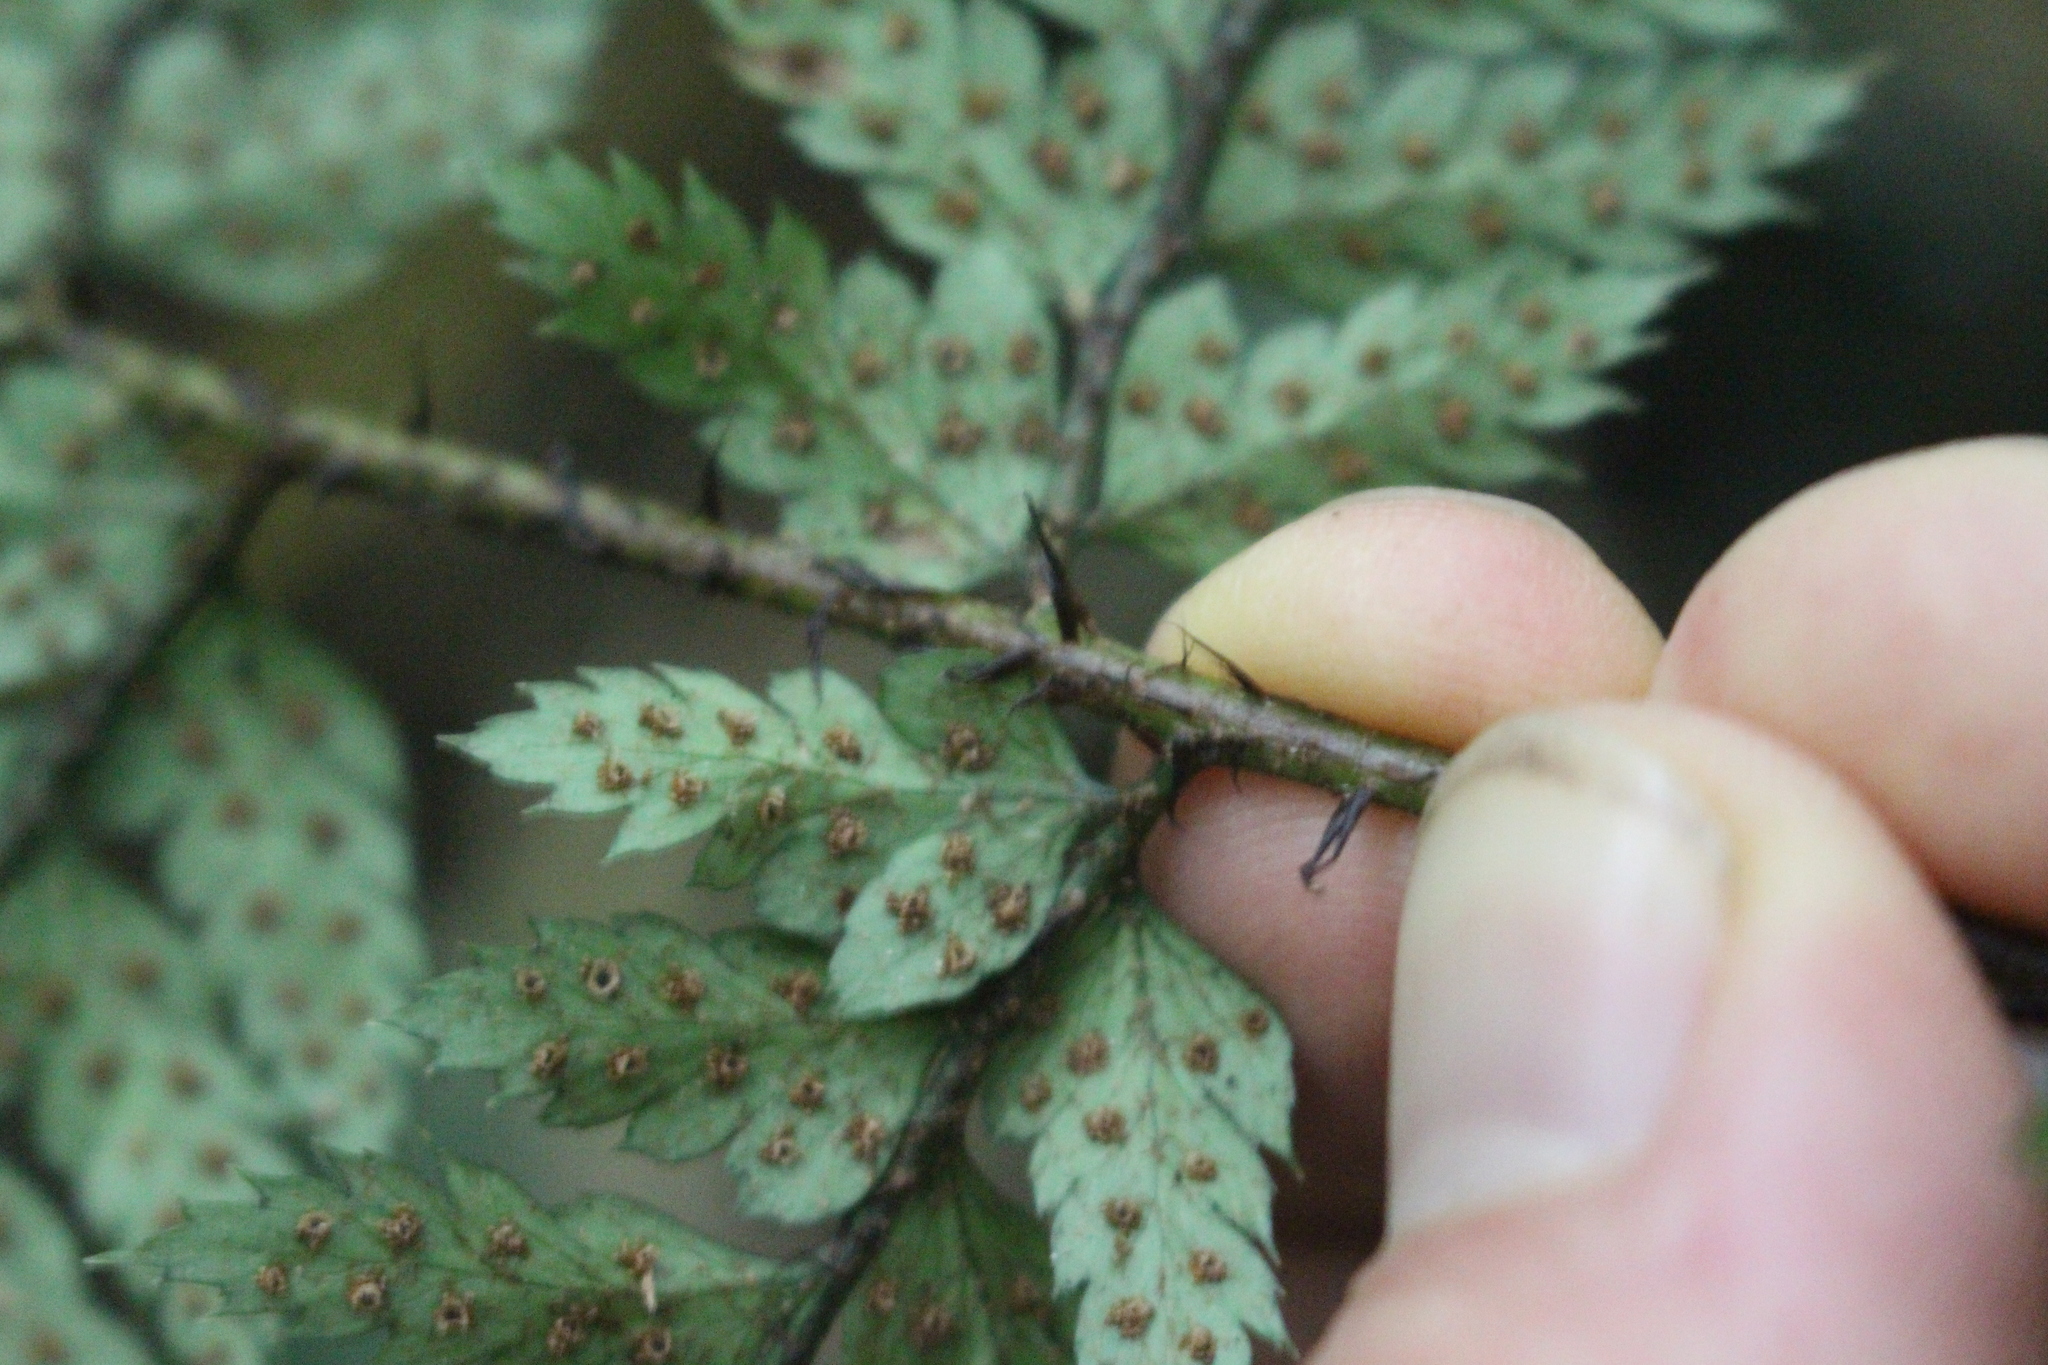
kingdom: Plantae
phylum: Tracheophyta
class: Polypodiopsida
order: Polypodiales
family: Dryopteridaceae
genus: Polystichum
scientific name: Polystichum neozelandicum
